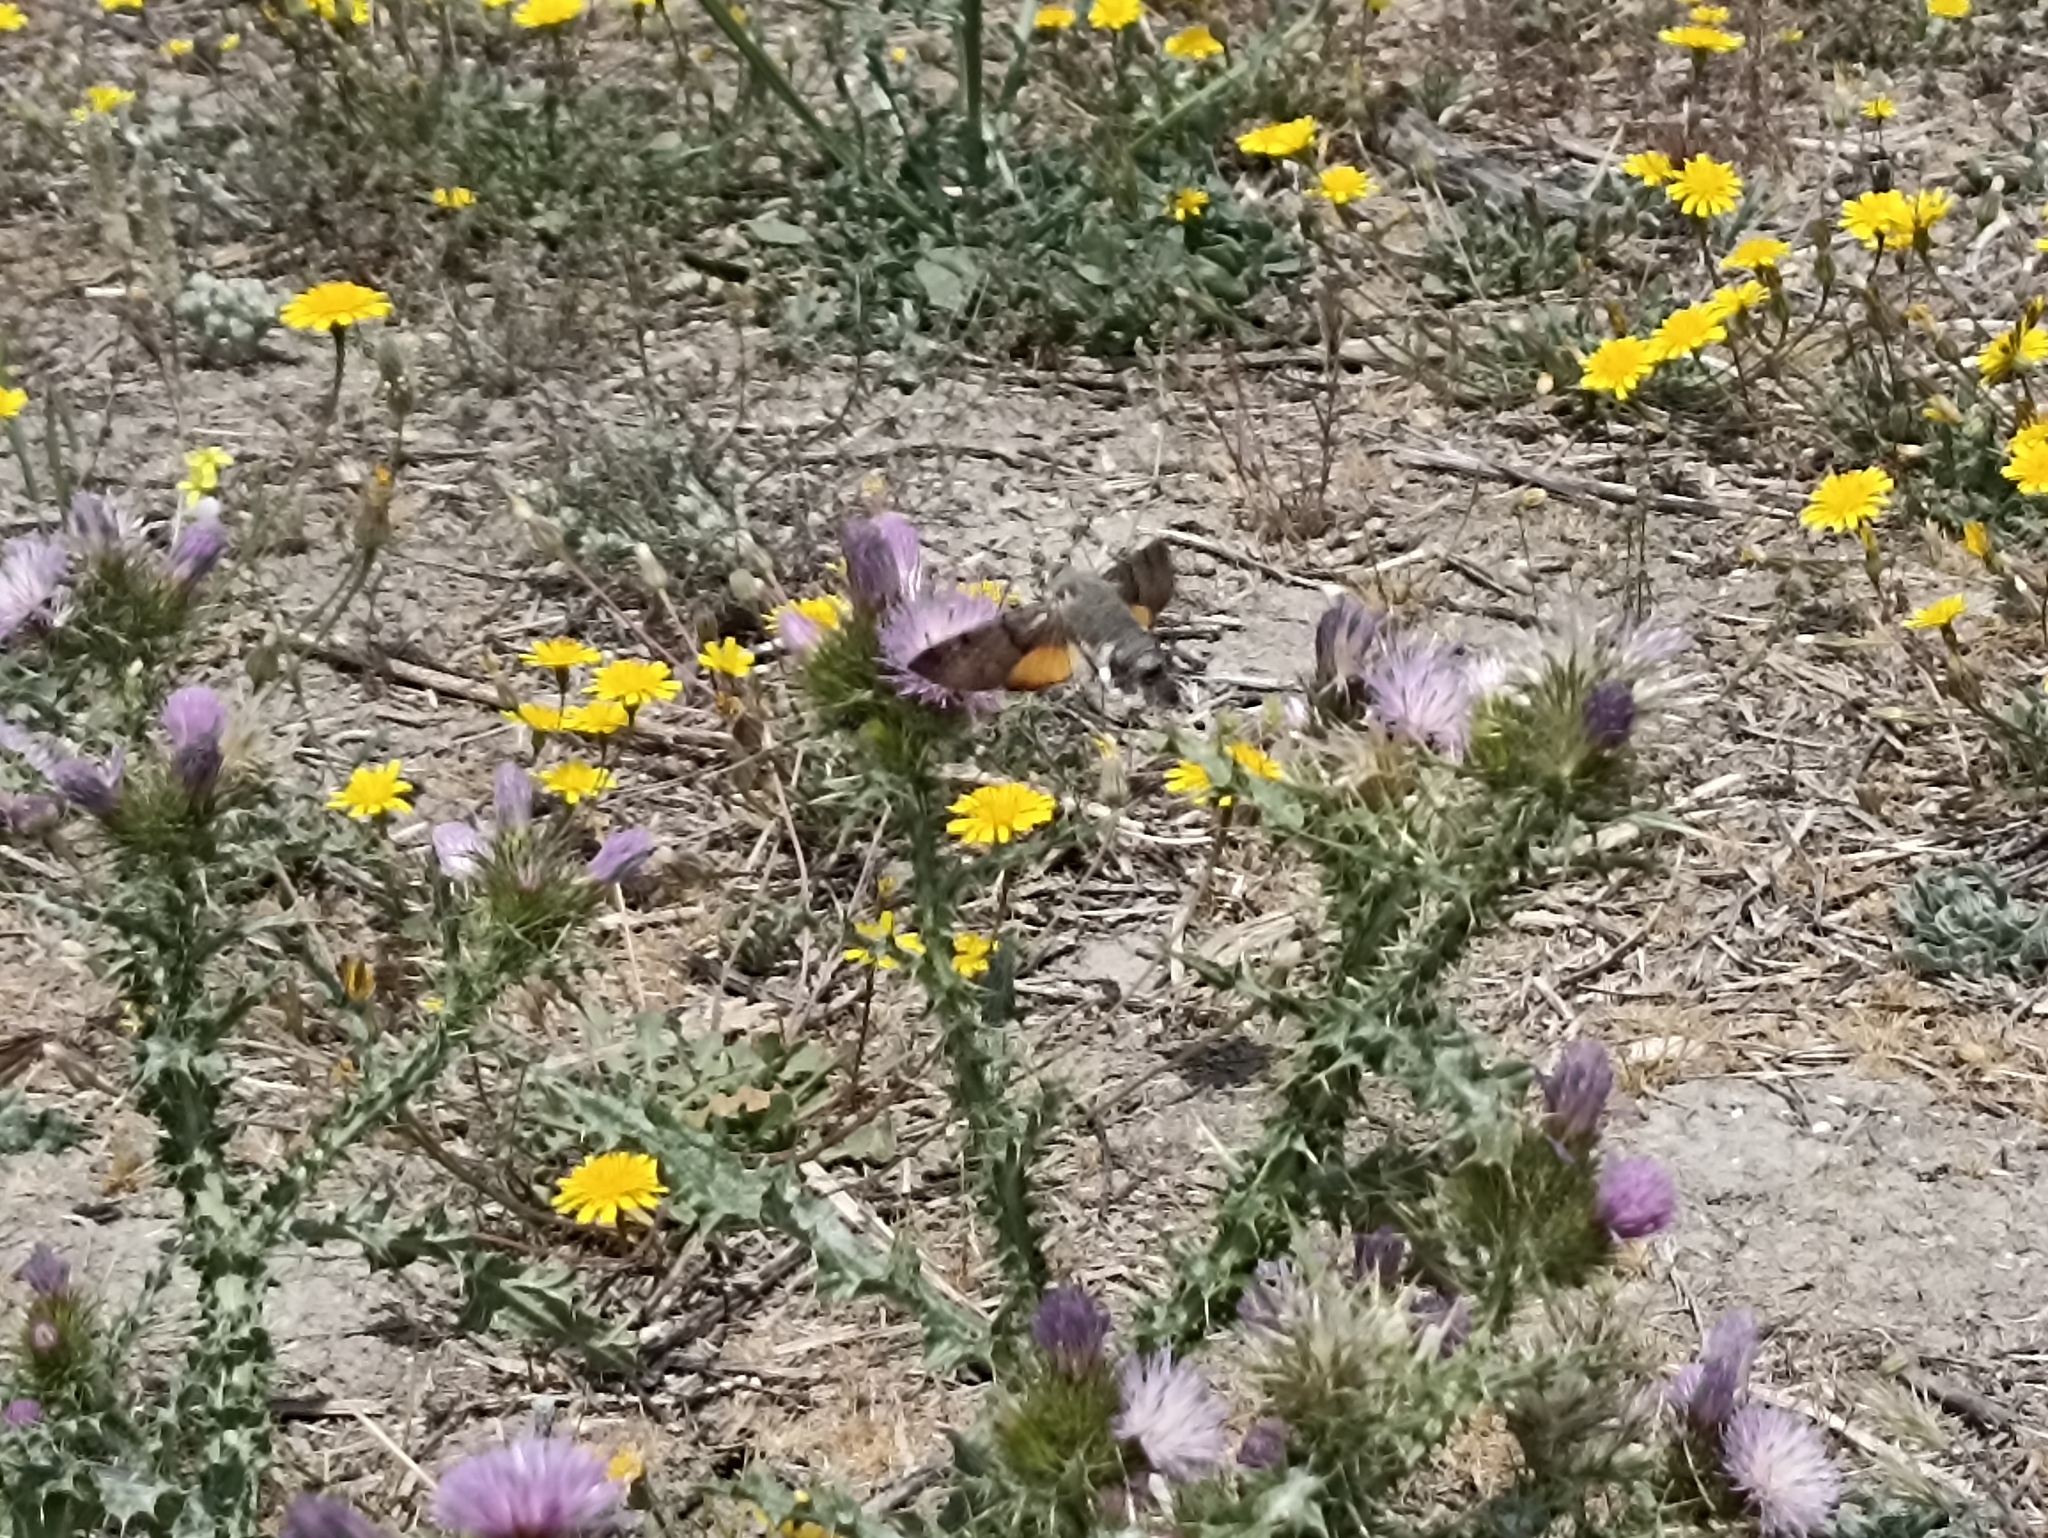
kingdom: Animalia
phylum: Arthropoda
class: Insecta
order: Lepidoptera
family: Sphingidae
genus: Macroglossum
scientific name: Macroglossum stellatarum
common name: Humming-bird hawk-moth
